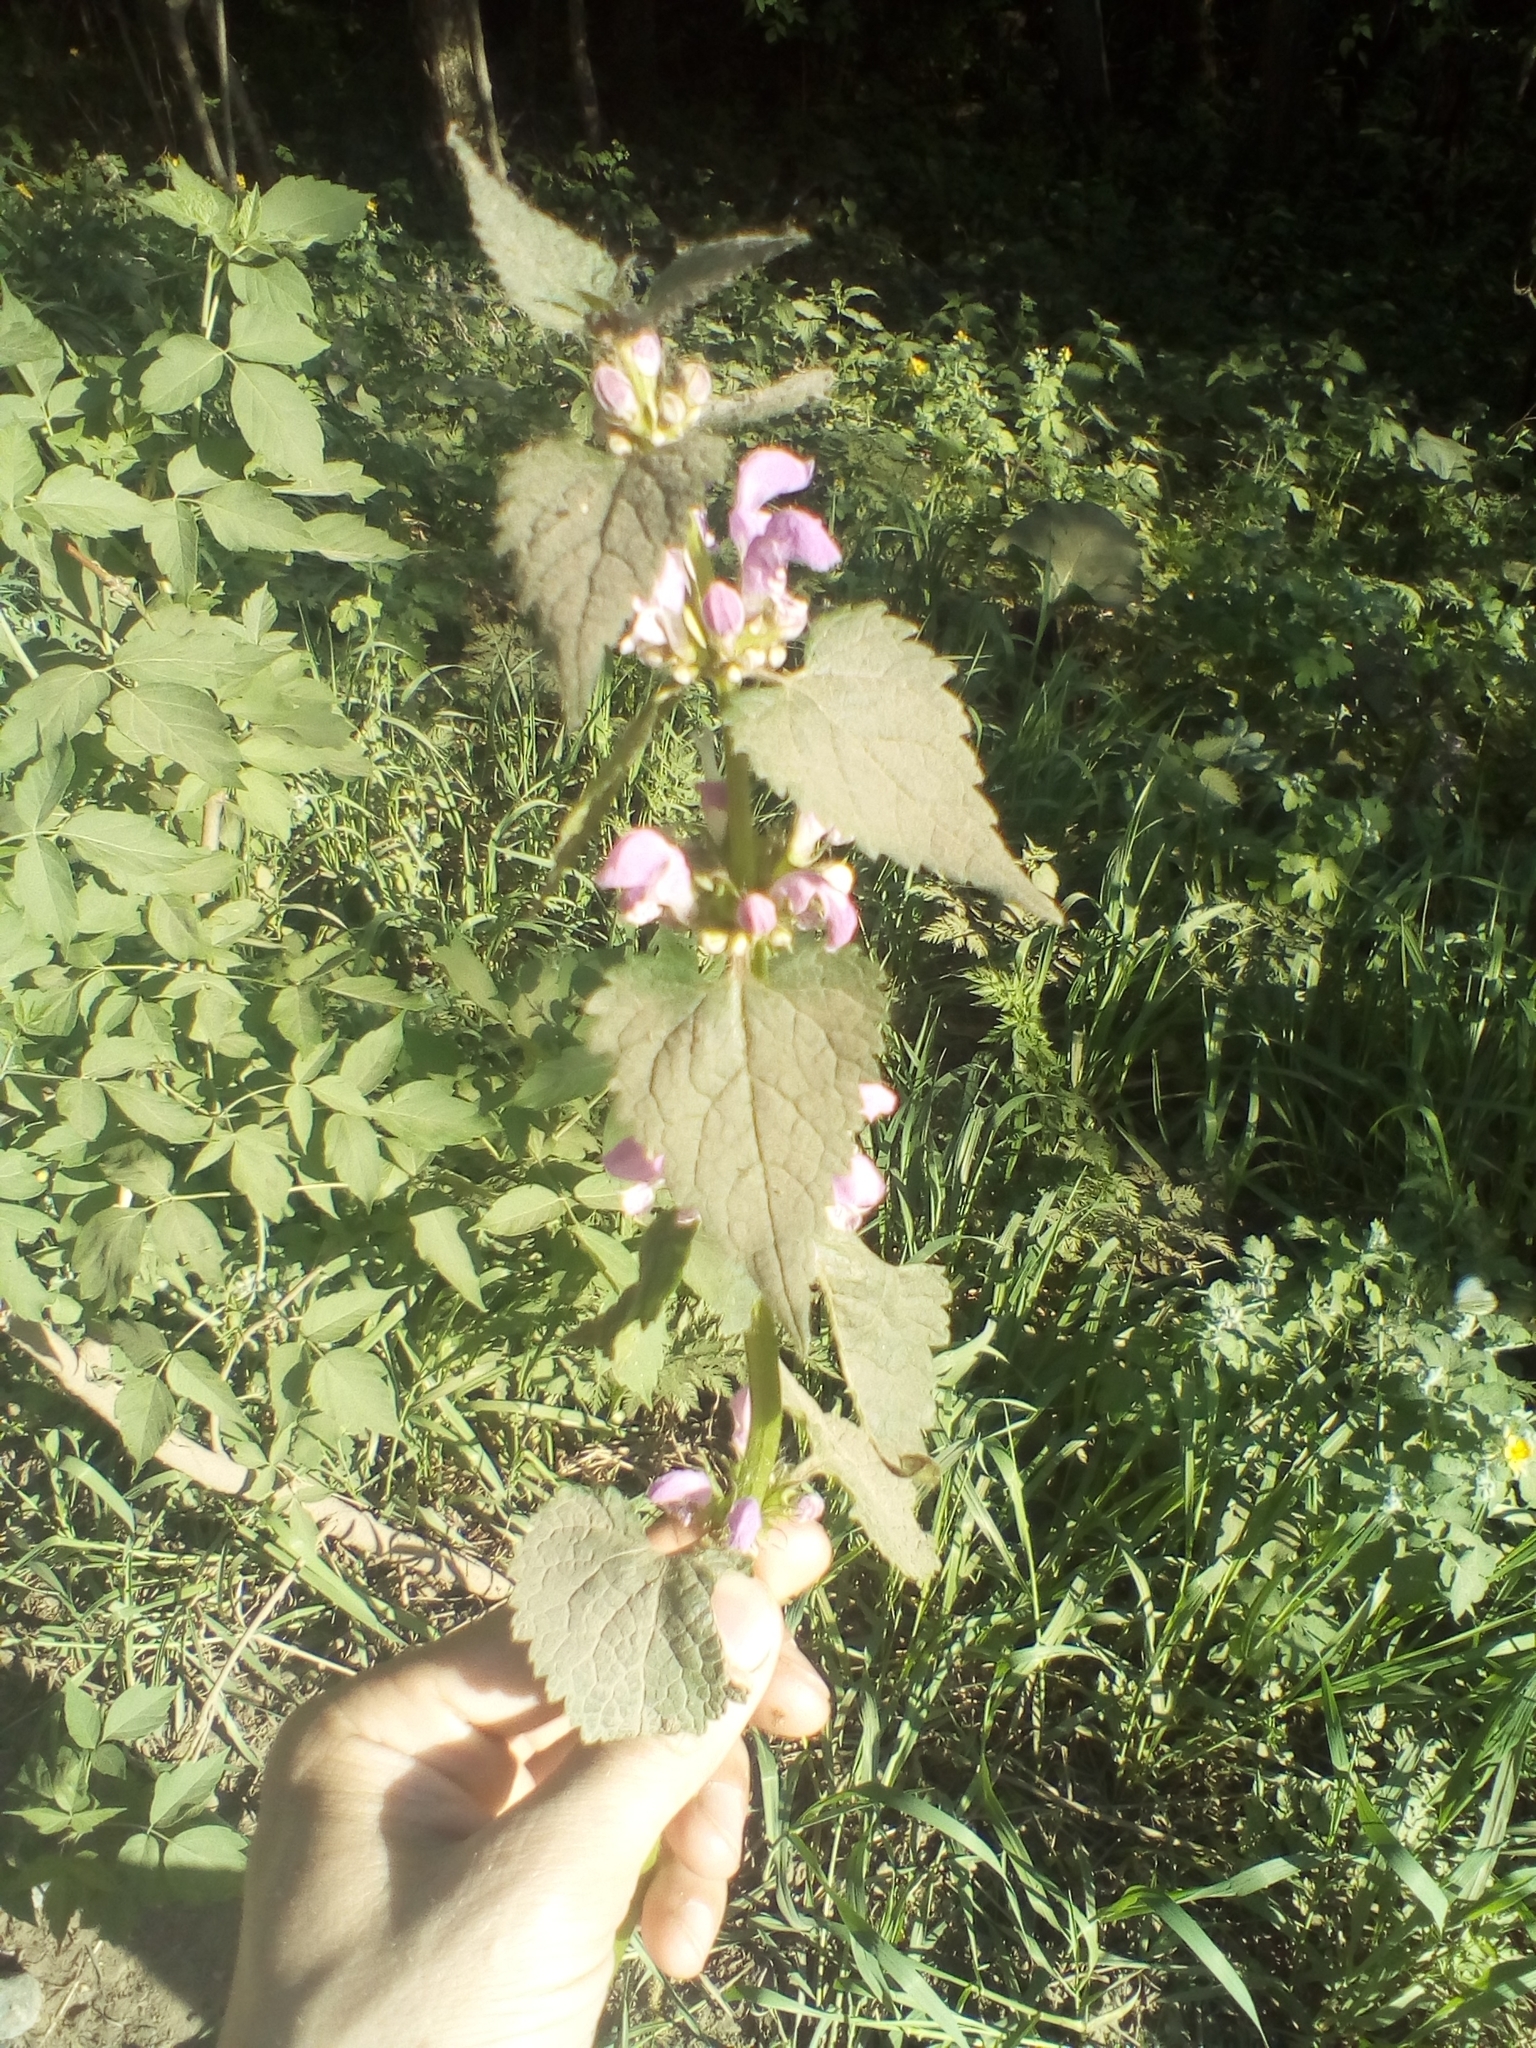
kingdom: Plantae
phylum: Tracheophyta
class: Magnoliopsida
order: Lamiales
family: Lamiaceae
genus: Lamium
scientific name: Lamium maculatum
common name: Spotted dead-nettle
